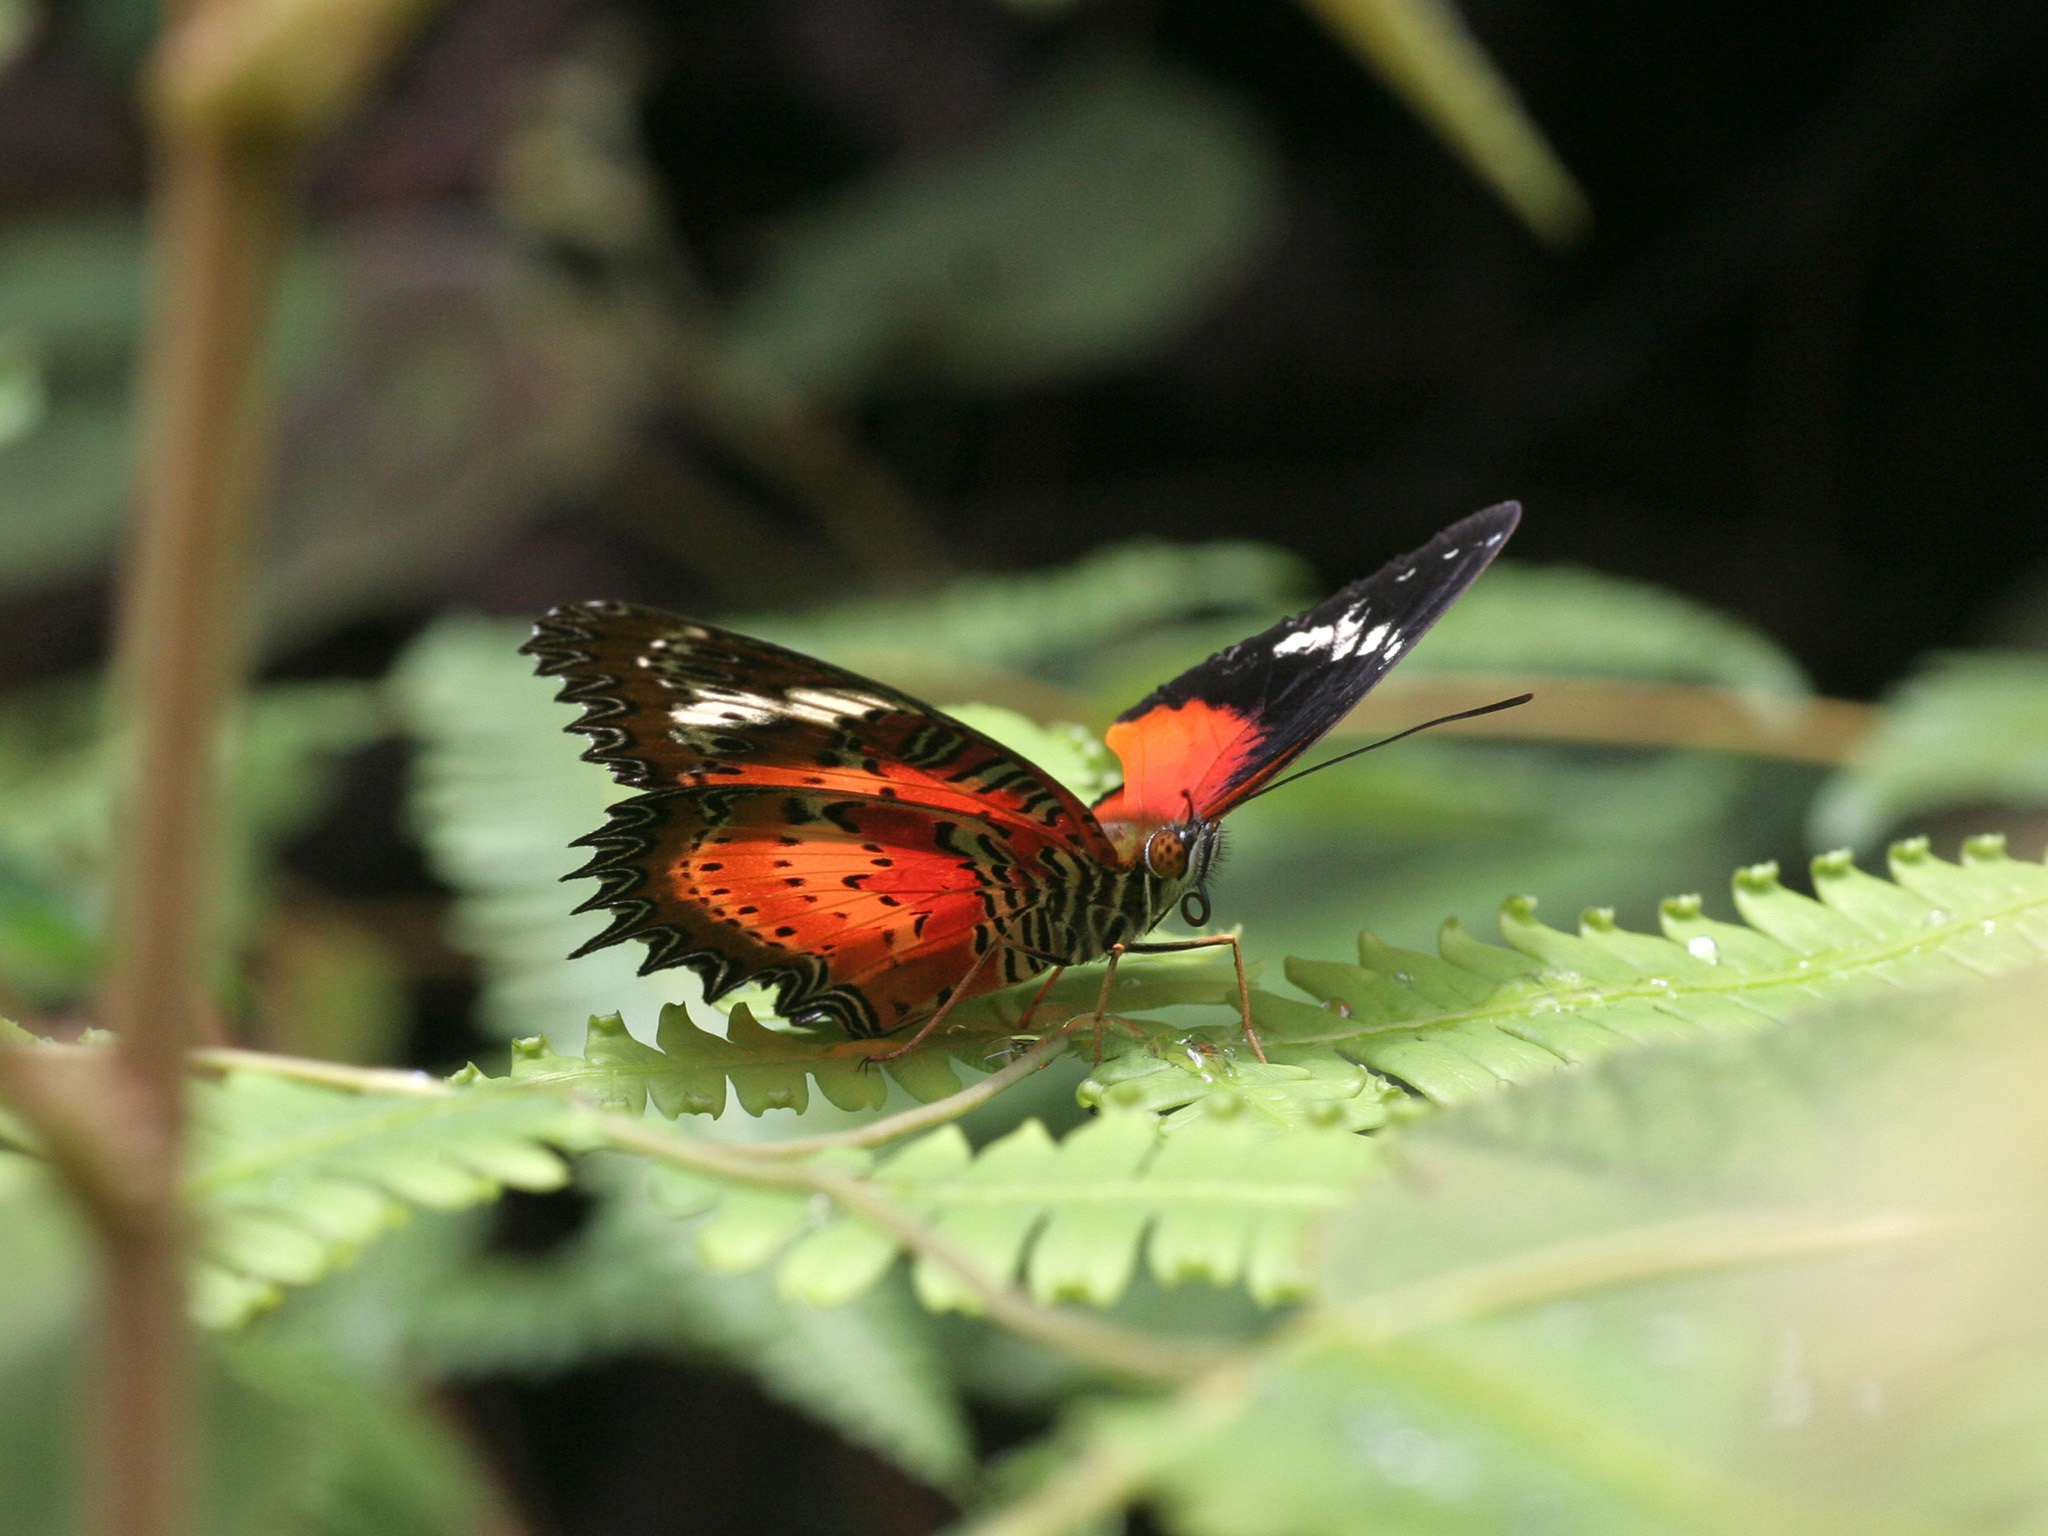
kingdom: Animalia
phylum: Arthropoda
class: Insecta
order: Lepidoptera
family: Nymphalidae
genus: Cethosia
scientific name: Cethosia penthesilea
